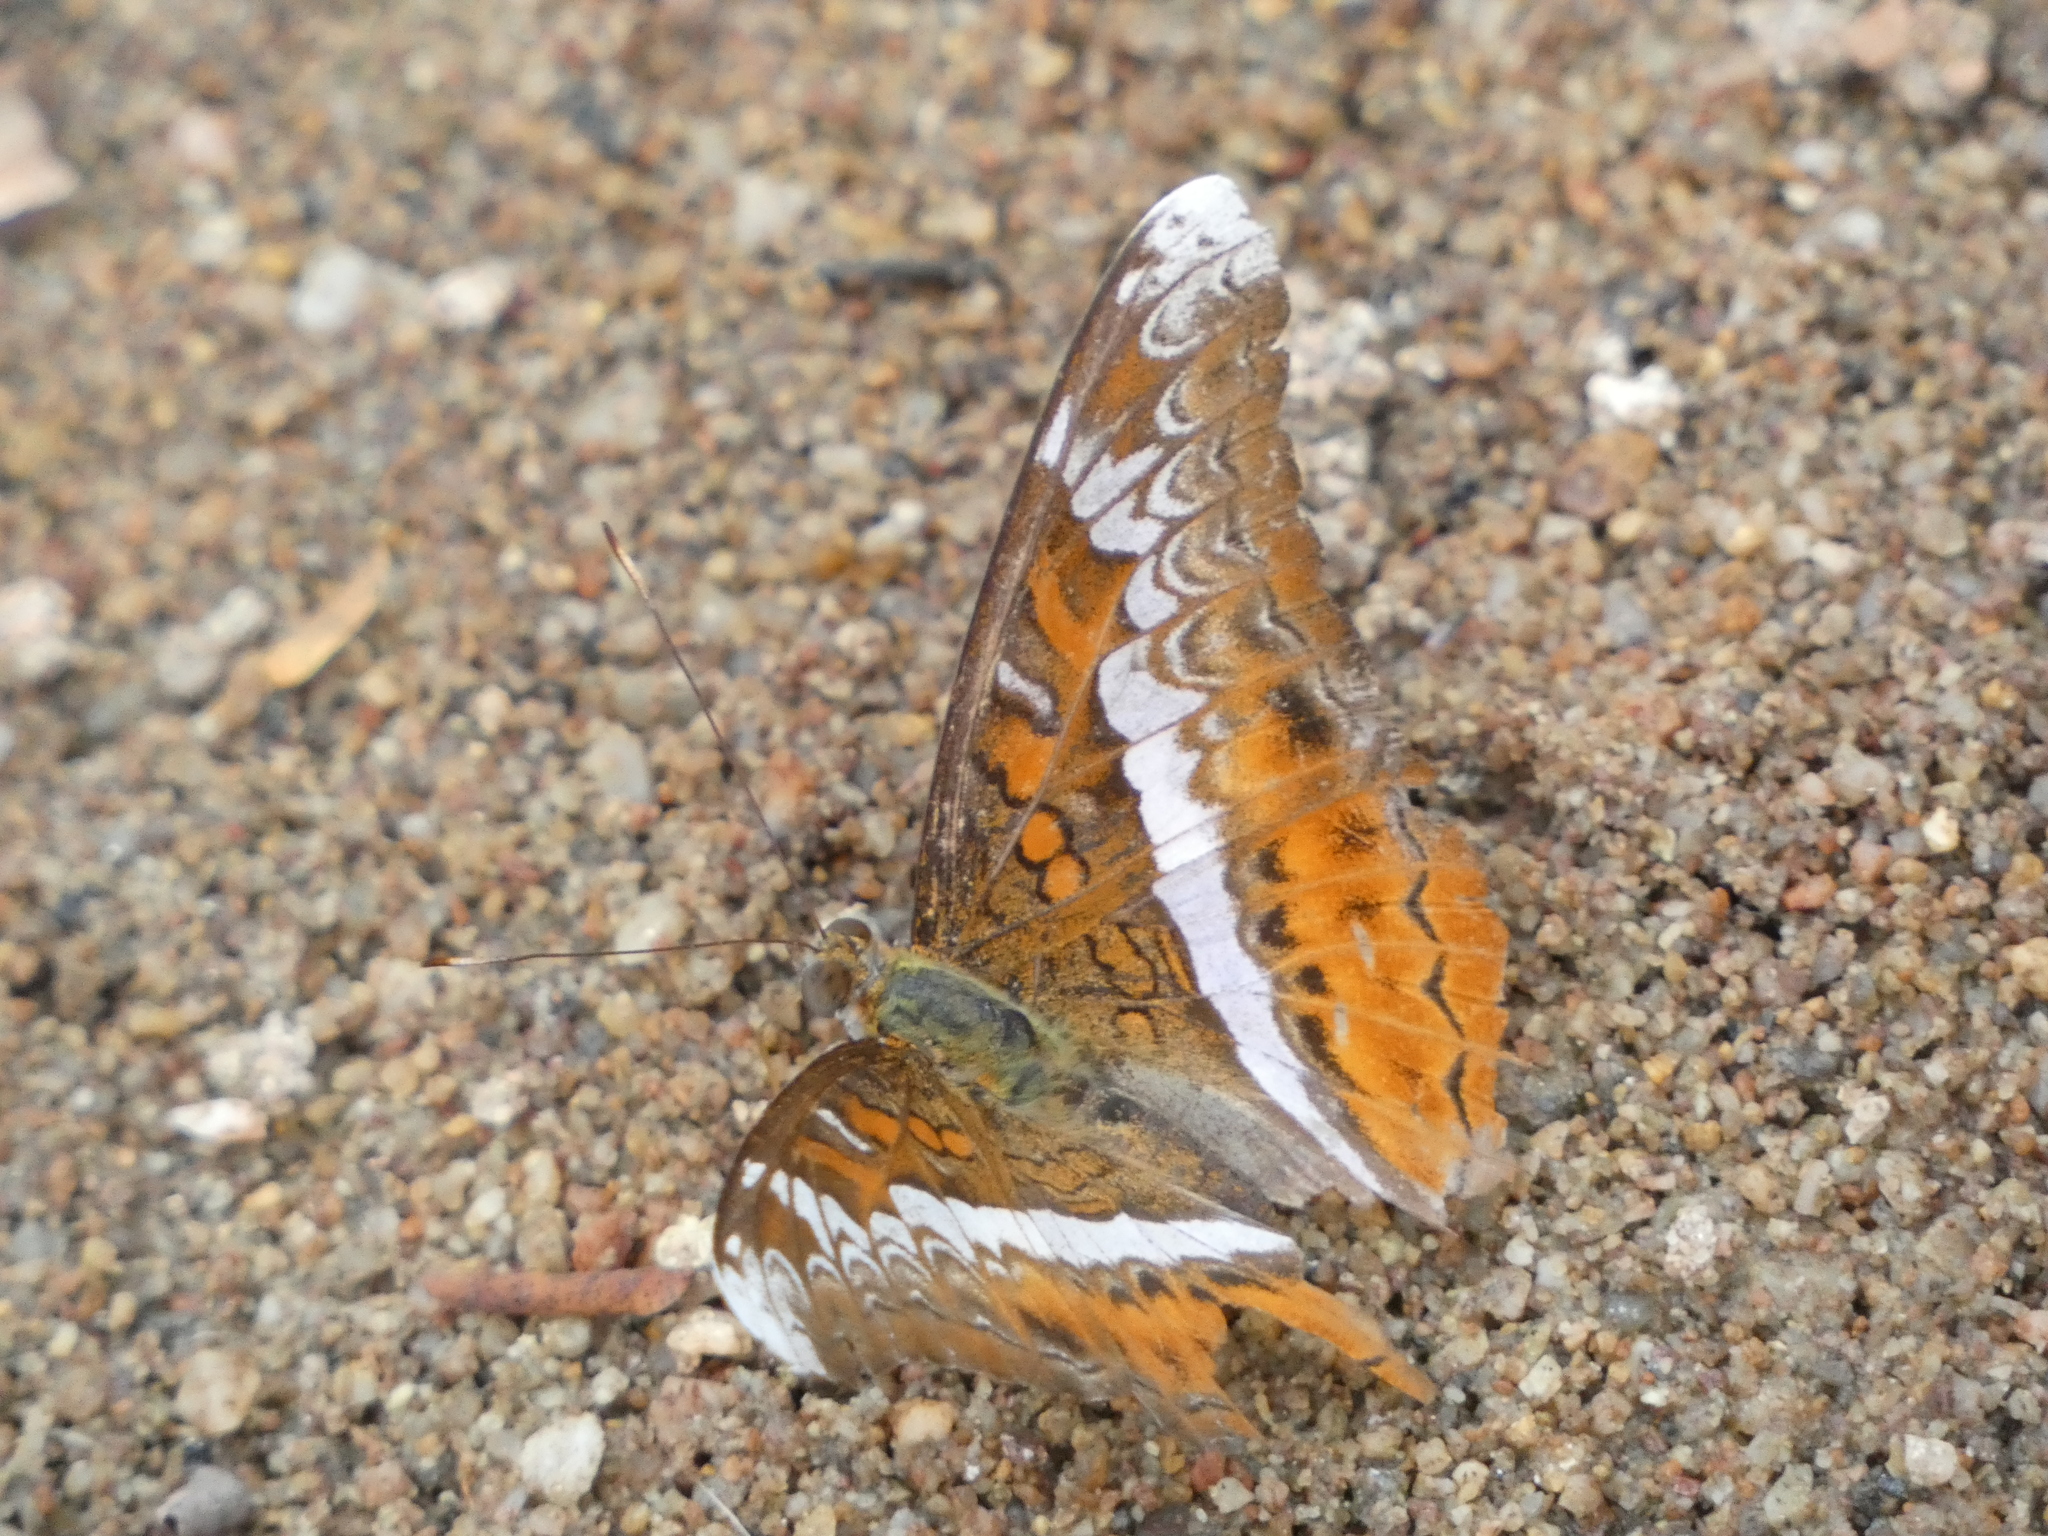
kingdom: Animalia
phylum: Arthropoda
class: Insecta
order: Lepidoptera
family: Nymphalidae
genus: Lebadea
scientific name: Lebadea martha
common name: Knight
